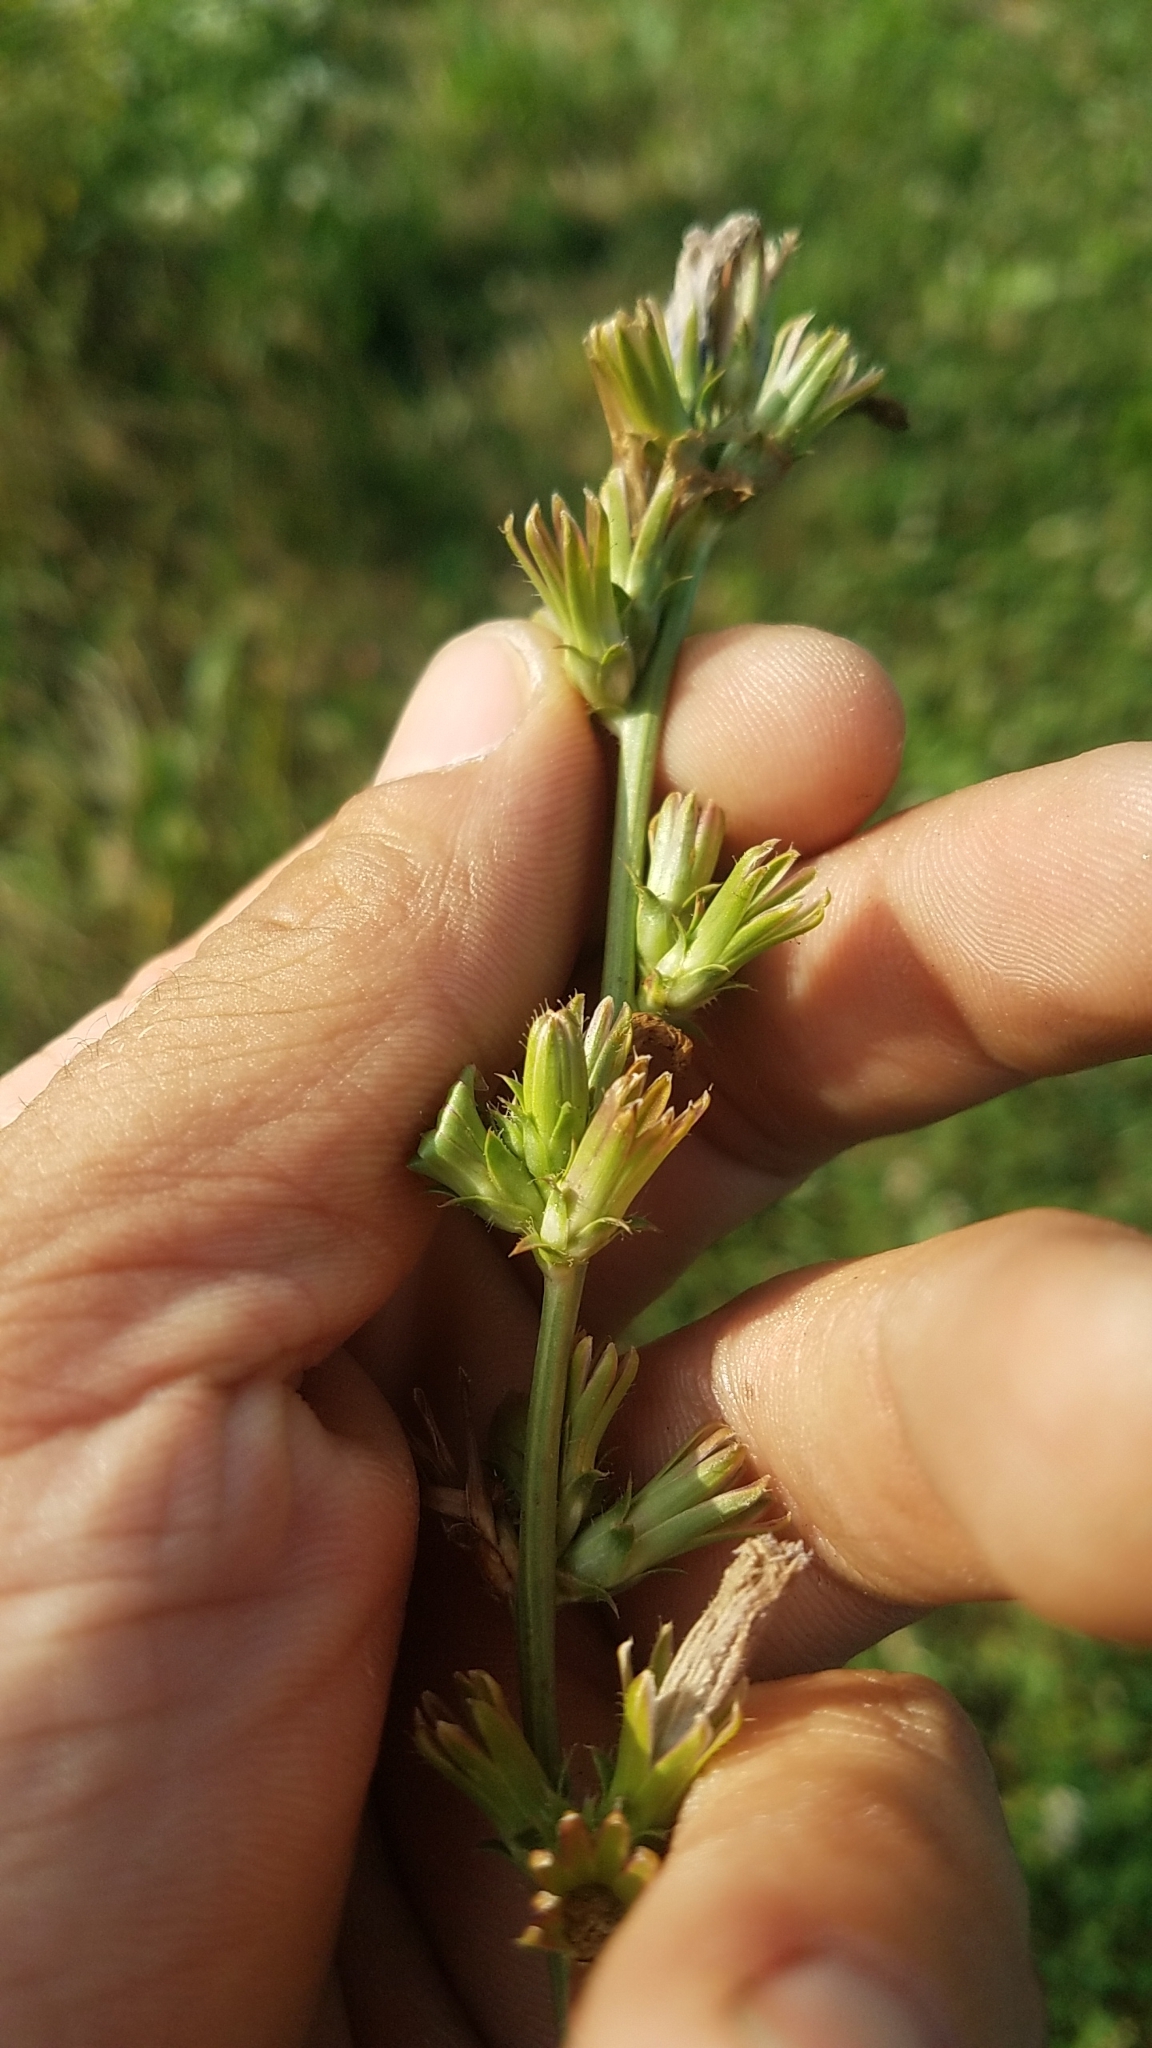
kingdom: Plantae
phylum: Tracheophyta
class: Magnoliopsida
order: Asterales
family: Asteraceae
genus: Cichorium
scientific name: Cichorium intybus
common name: Chicory
